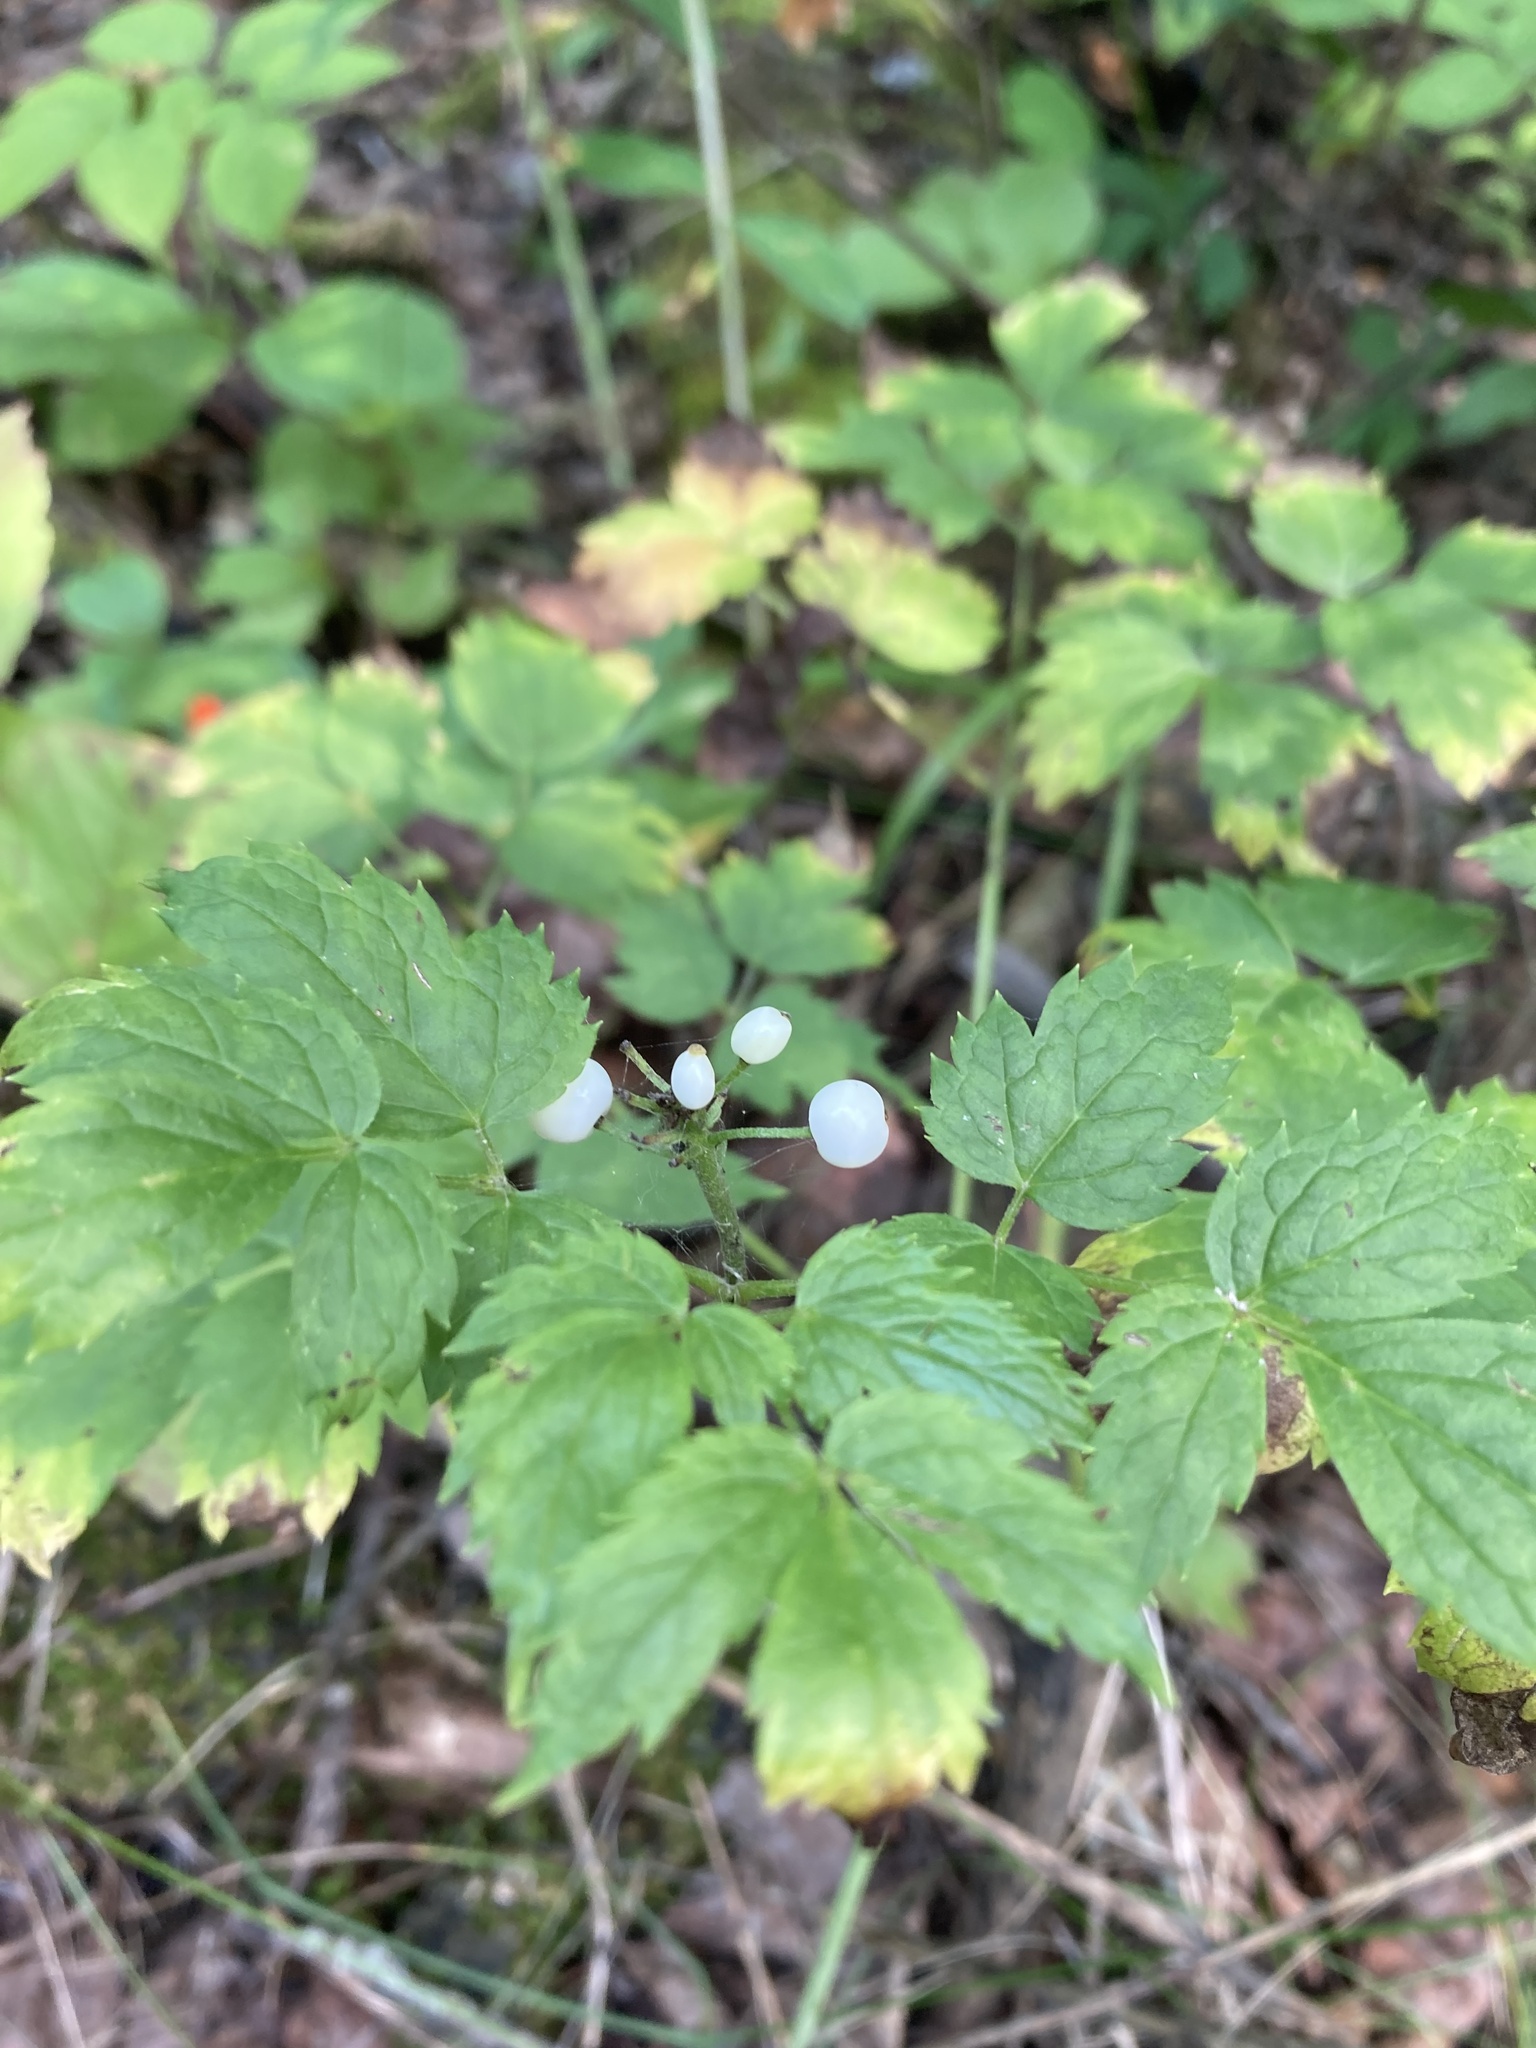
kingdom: Plantae
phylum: Tracheophyta
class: Magnoliopsida
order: Ranunculales
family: Ranunculaceae
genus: Actaea
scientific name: Actaea rubra
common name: Red baneberry
